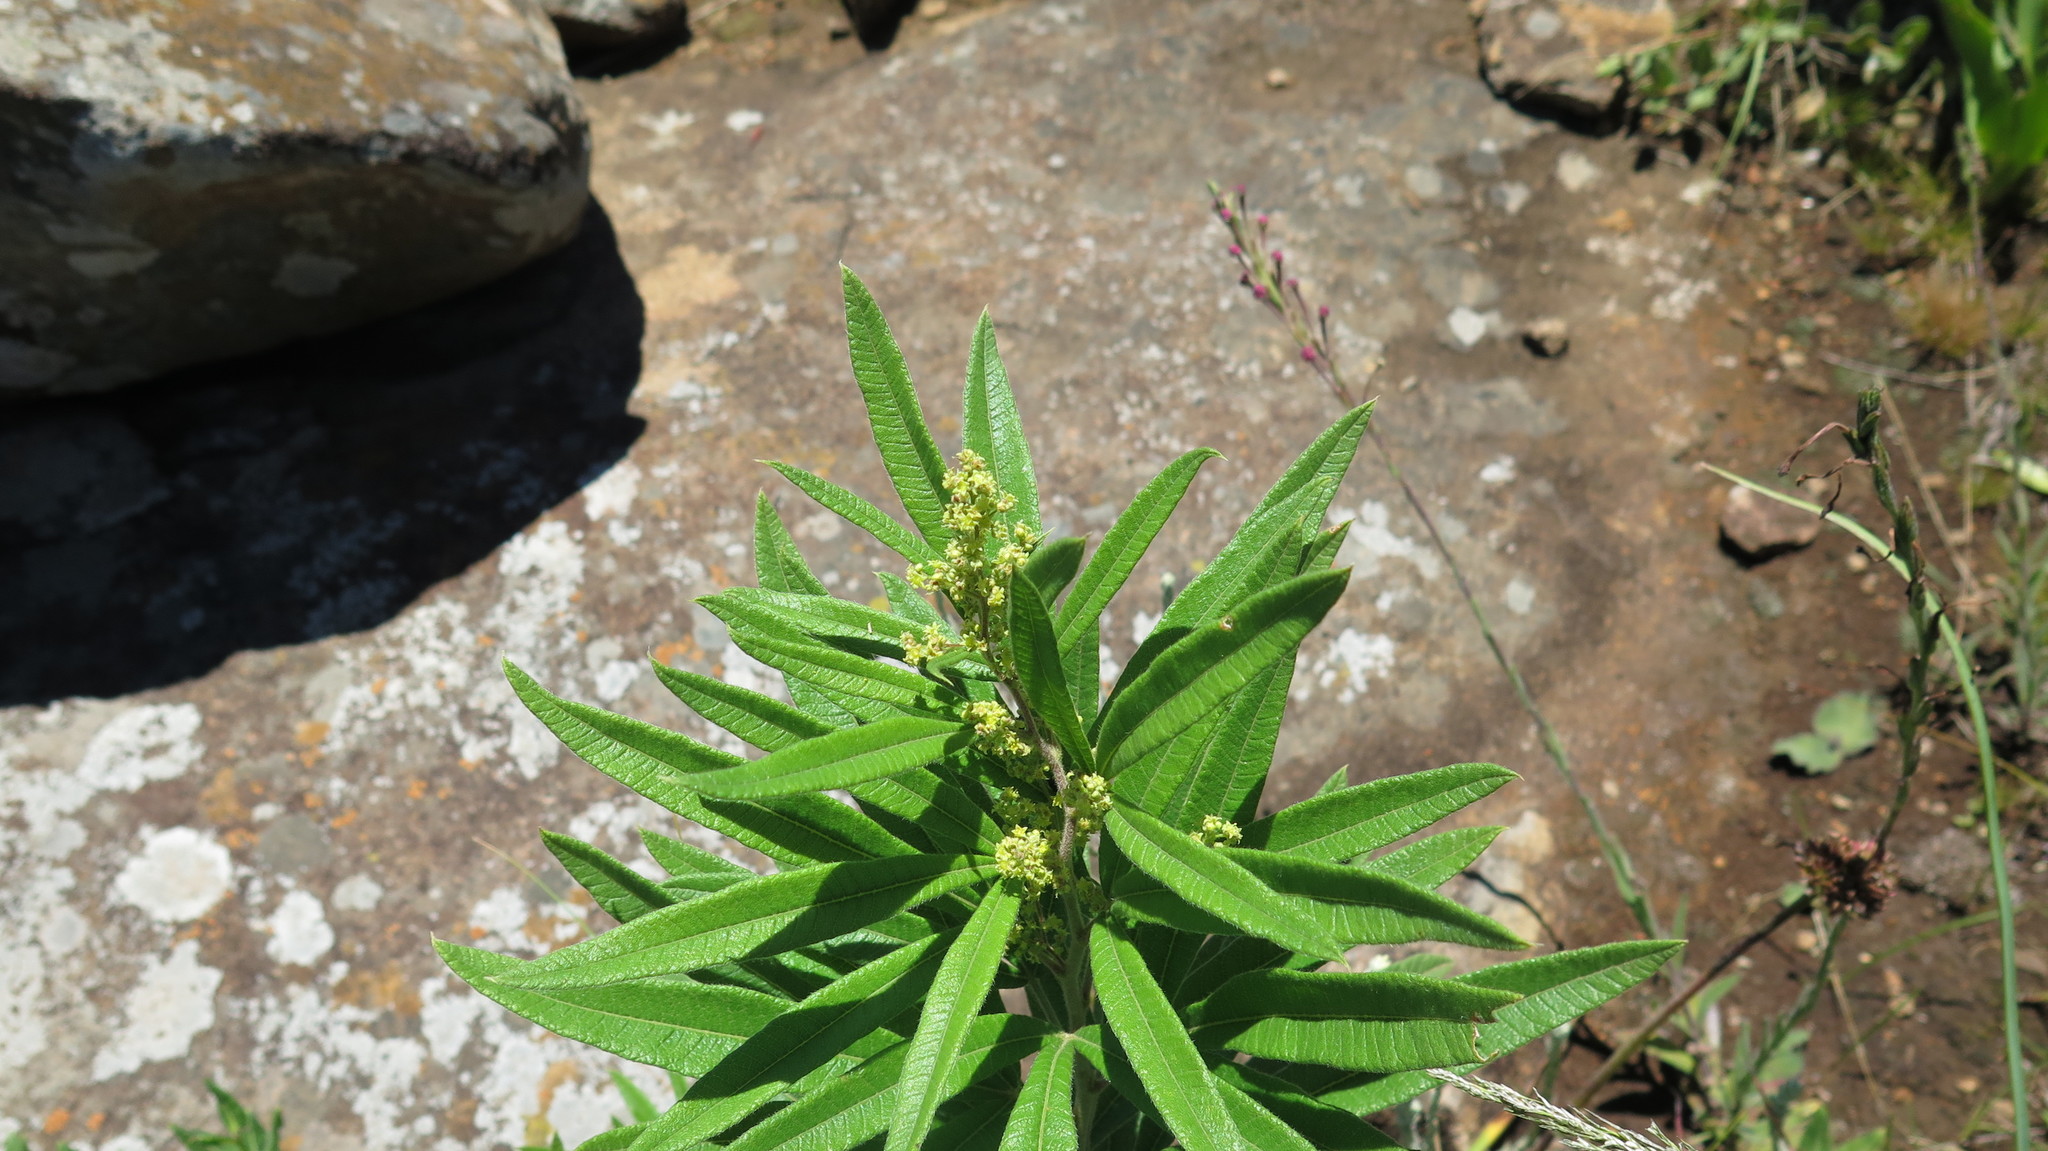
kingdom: Plantae
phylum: Tracheophyta
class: Magnoliopsida
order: Sapindales
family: Anacardiaceae
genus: Searsia
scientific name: Searsia discolor
